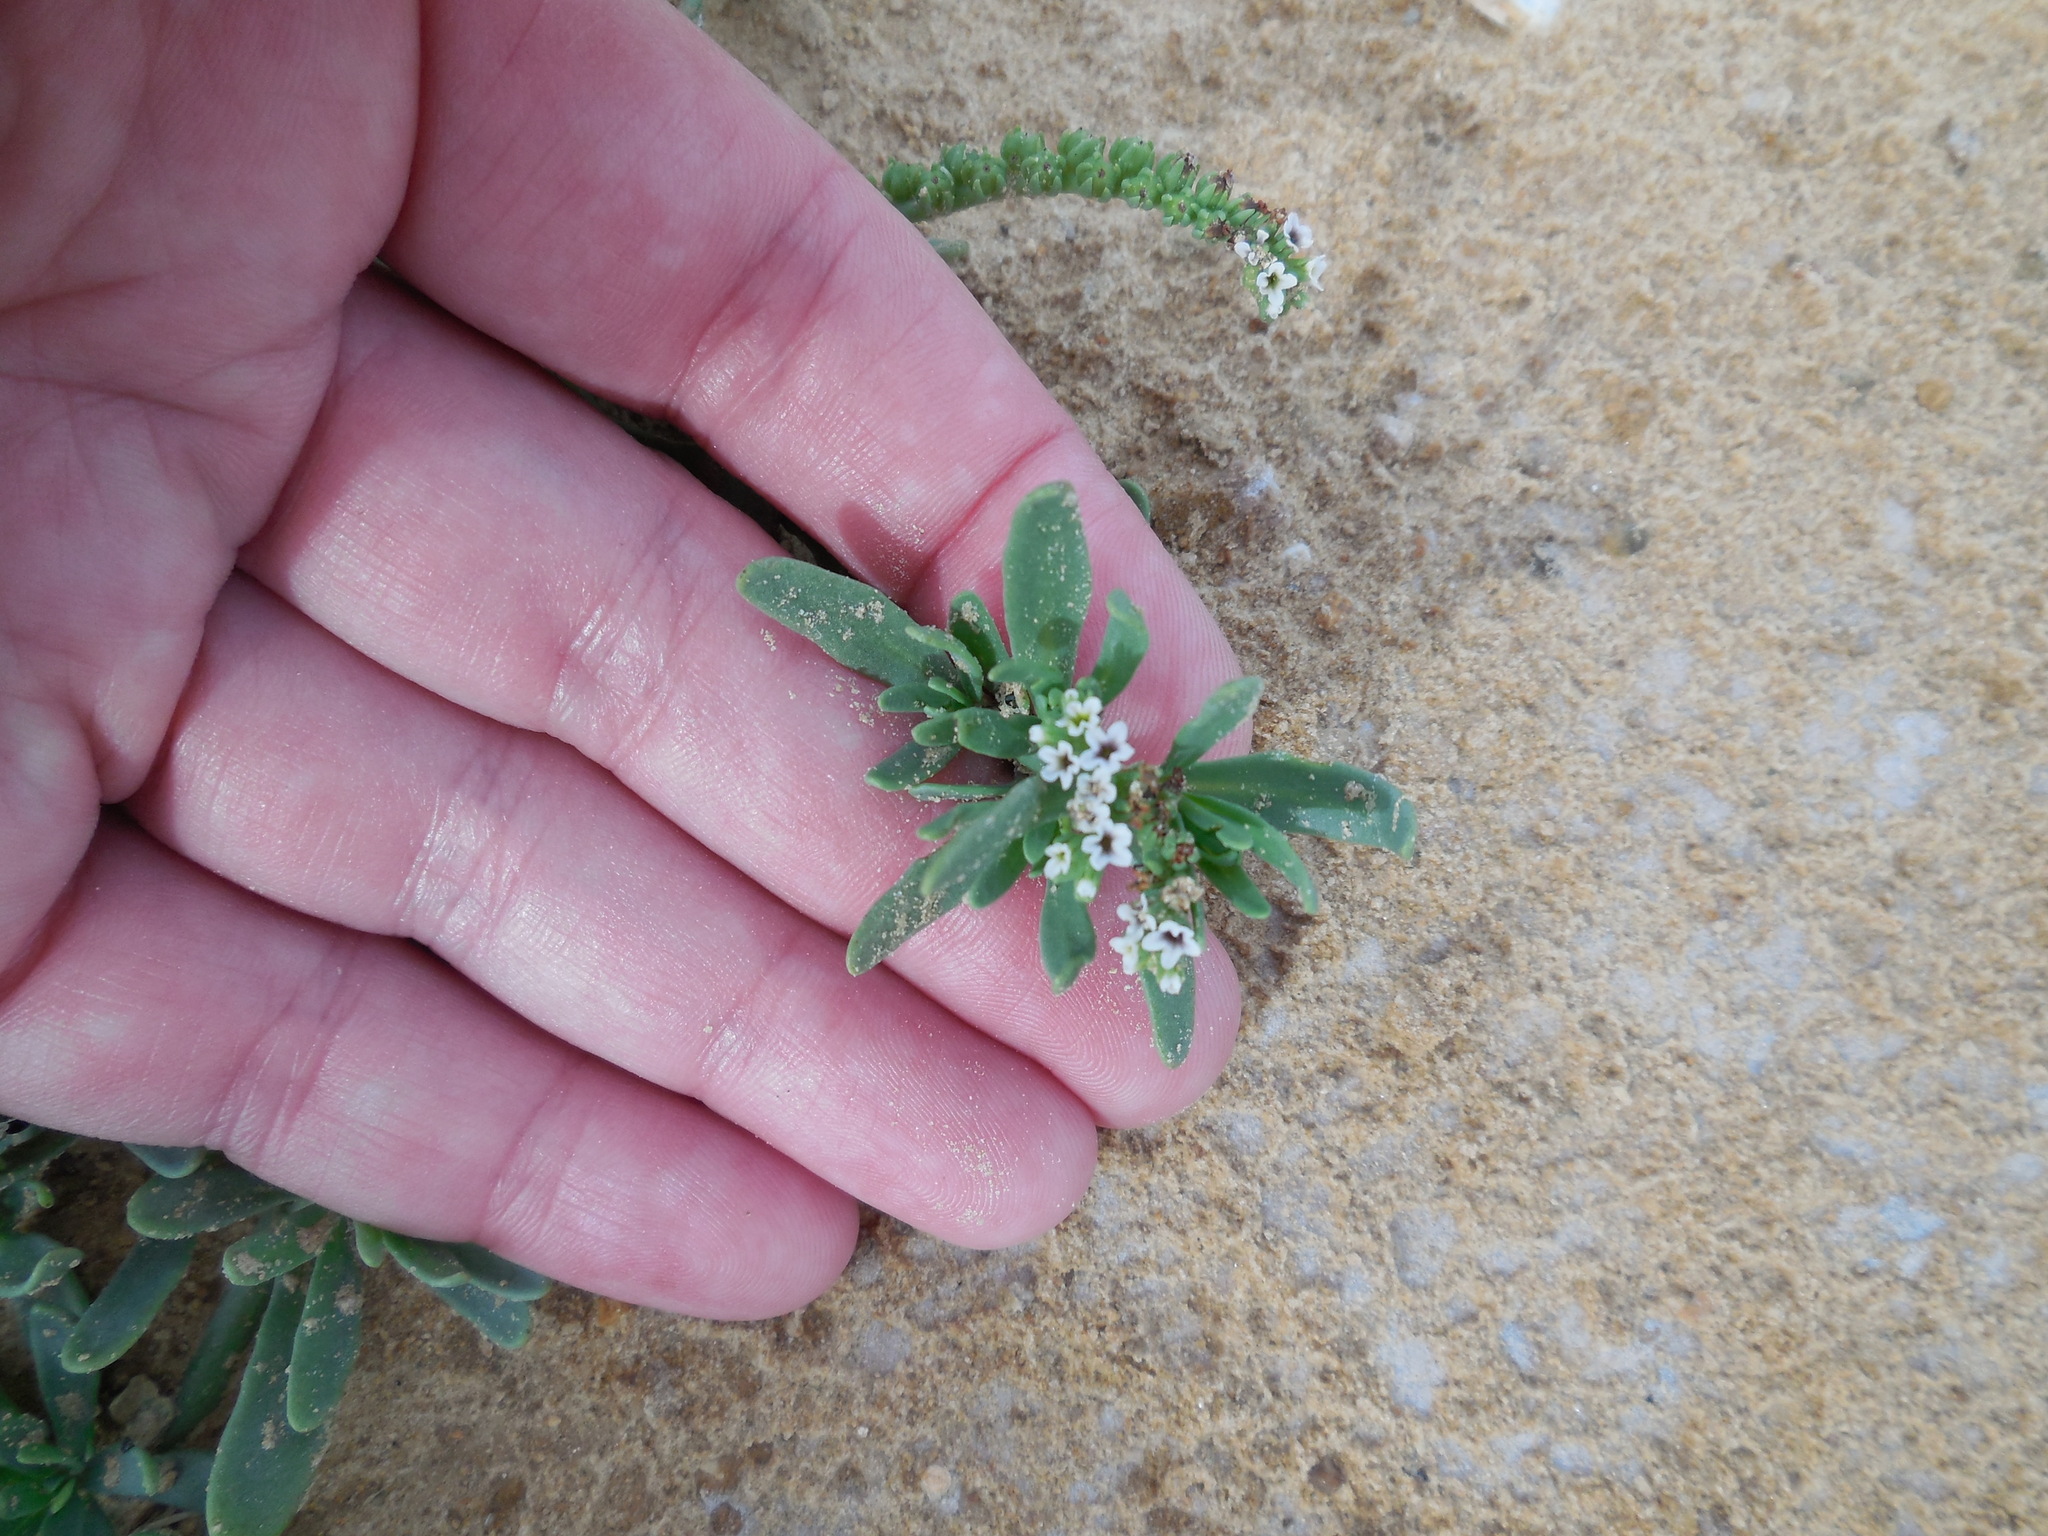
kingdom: Plantae
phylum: Tracheophyta
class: Magnoliopsida
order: Boraginales
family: Heliotropiaceae
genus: Heliotropium
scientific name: Heliotropium curassavicum
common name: Seaside heliotrope
